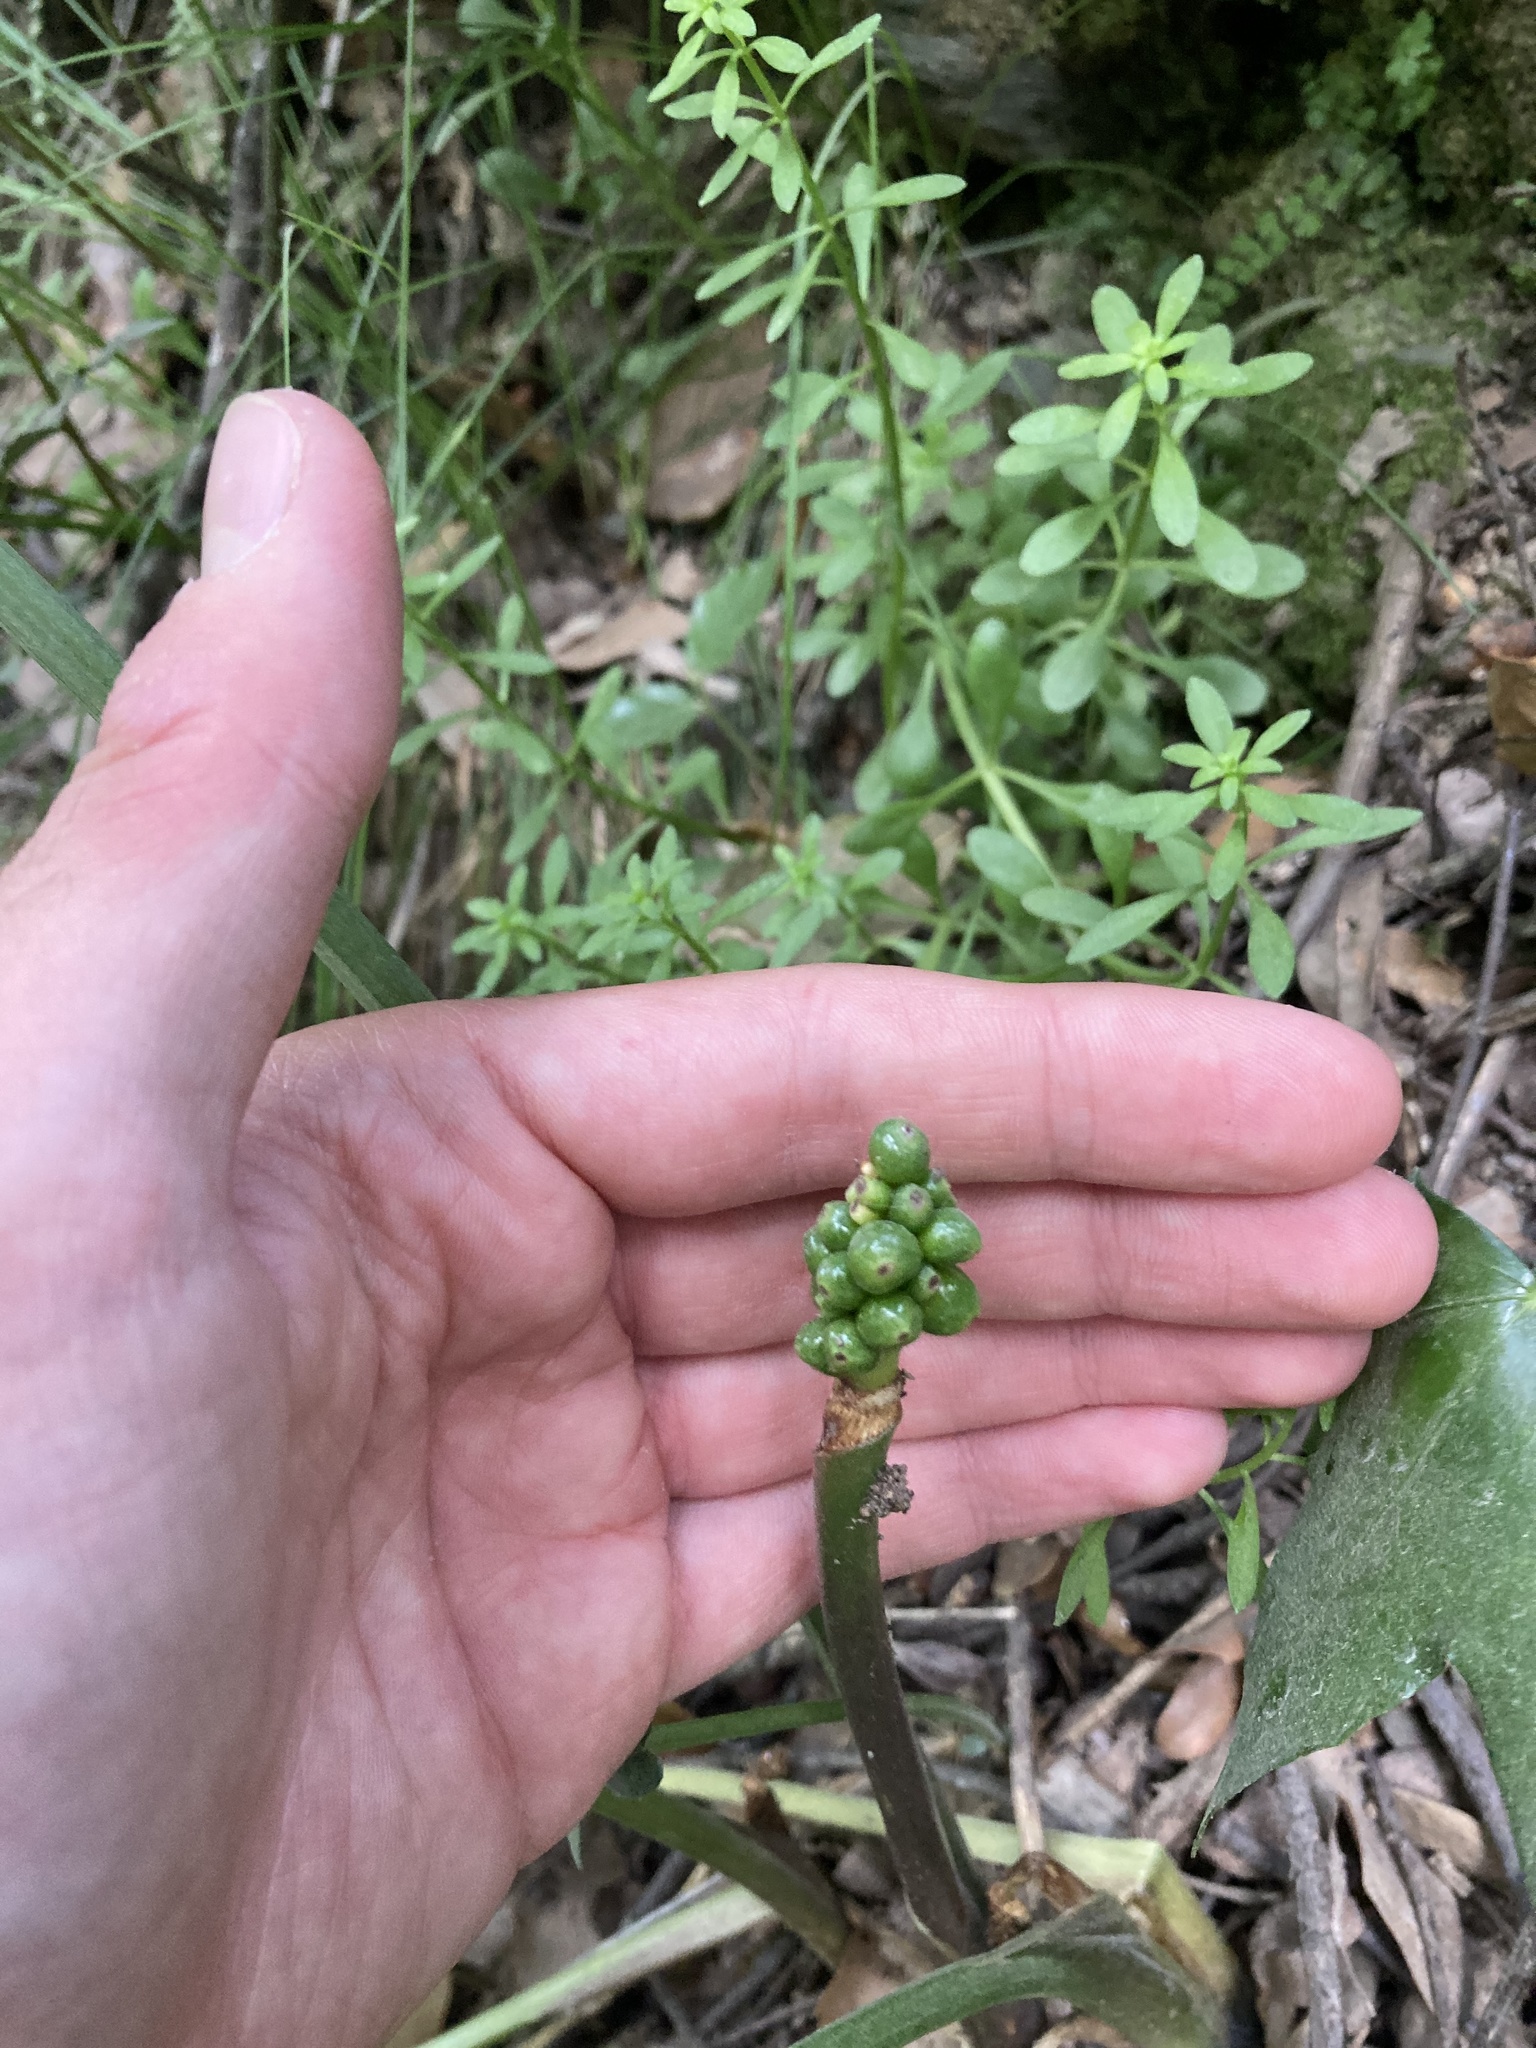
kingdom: Plantae
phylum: Tracheophyta
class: Liliopsida
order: Alismatales
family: Araceae
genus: Arum
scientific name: Arum italicum
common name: Italian lords-and-ladies
